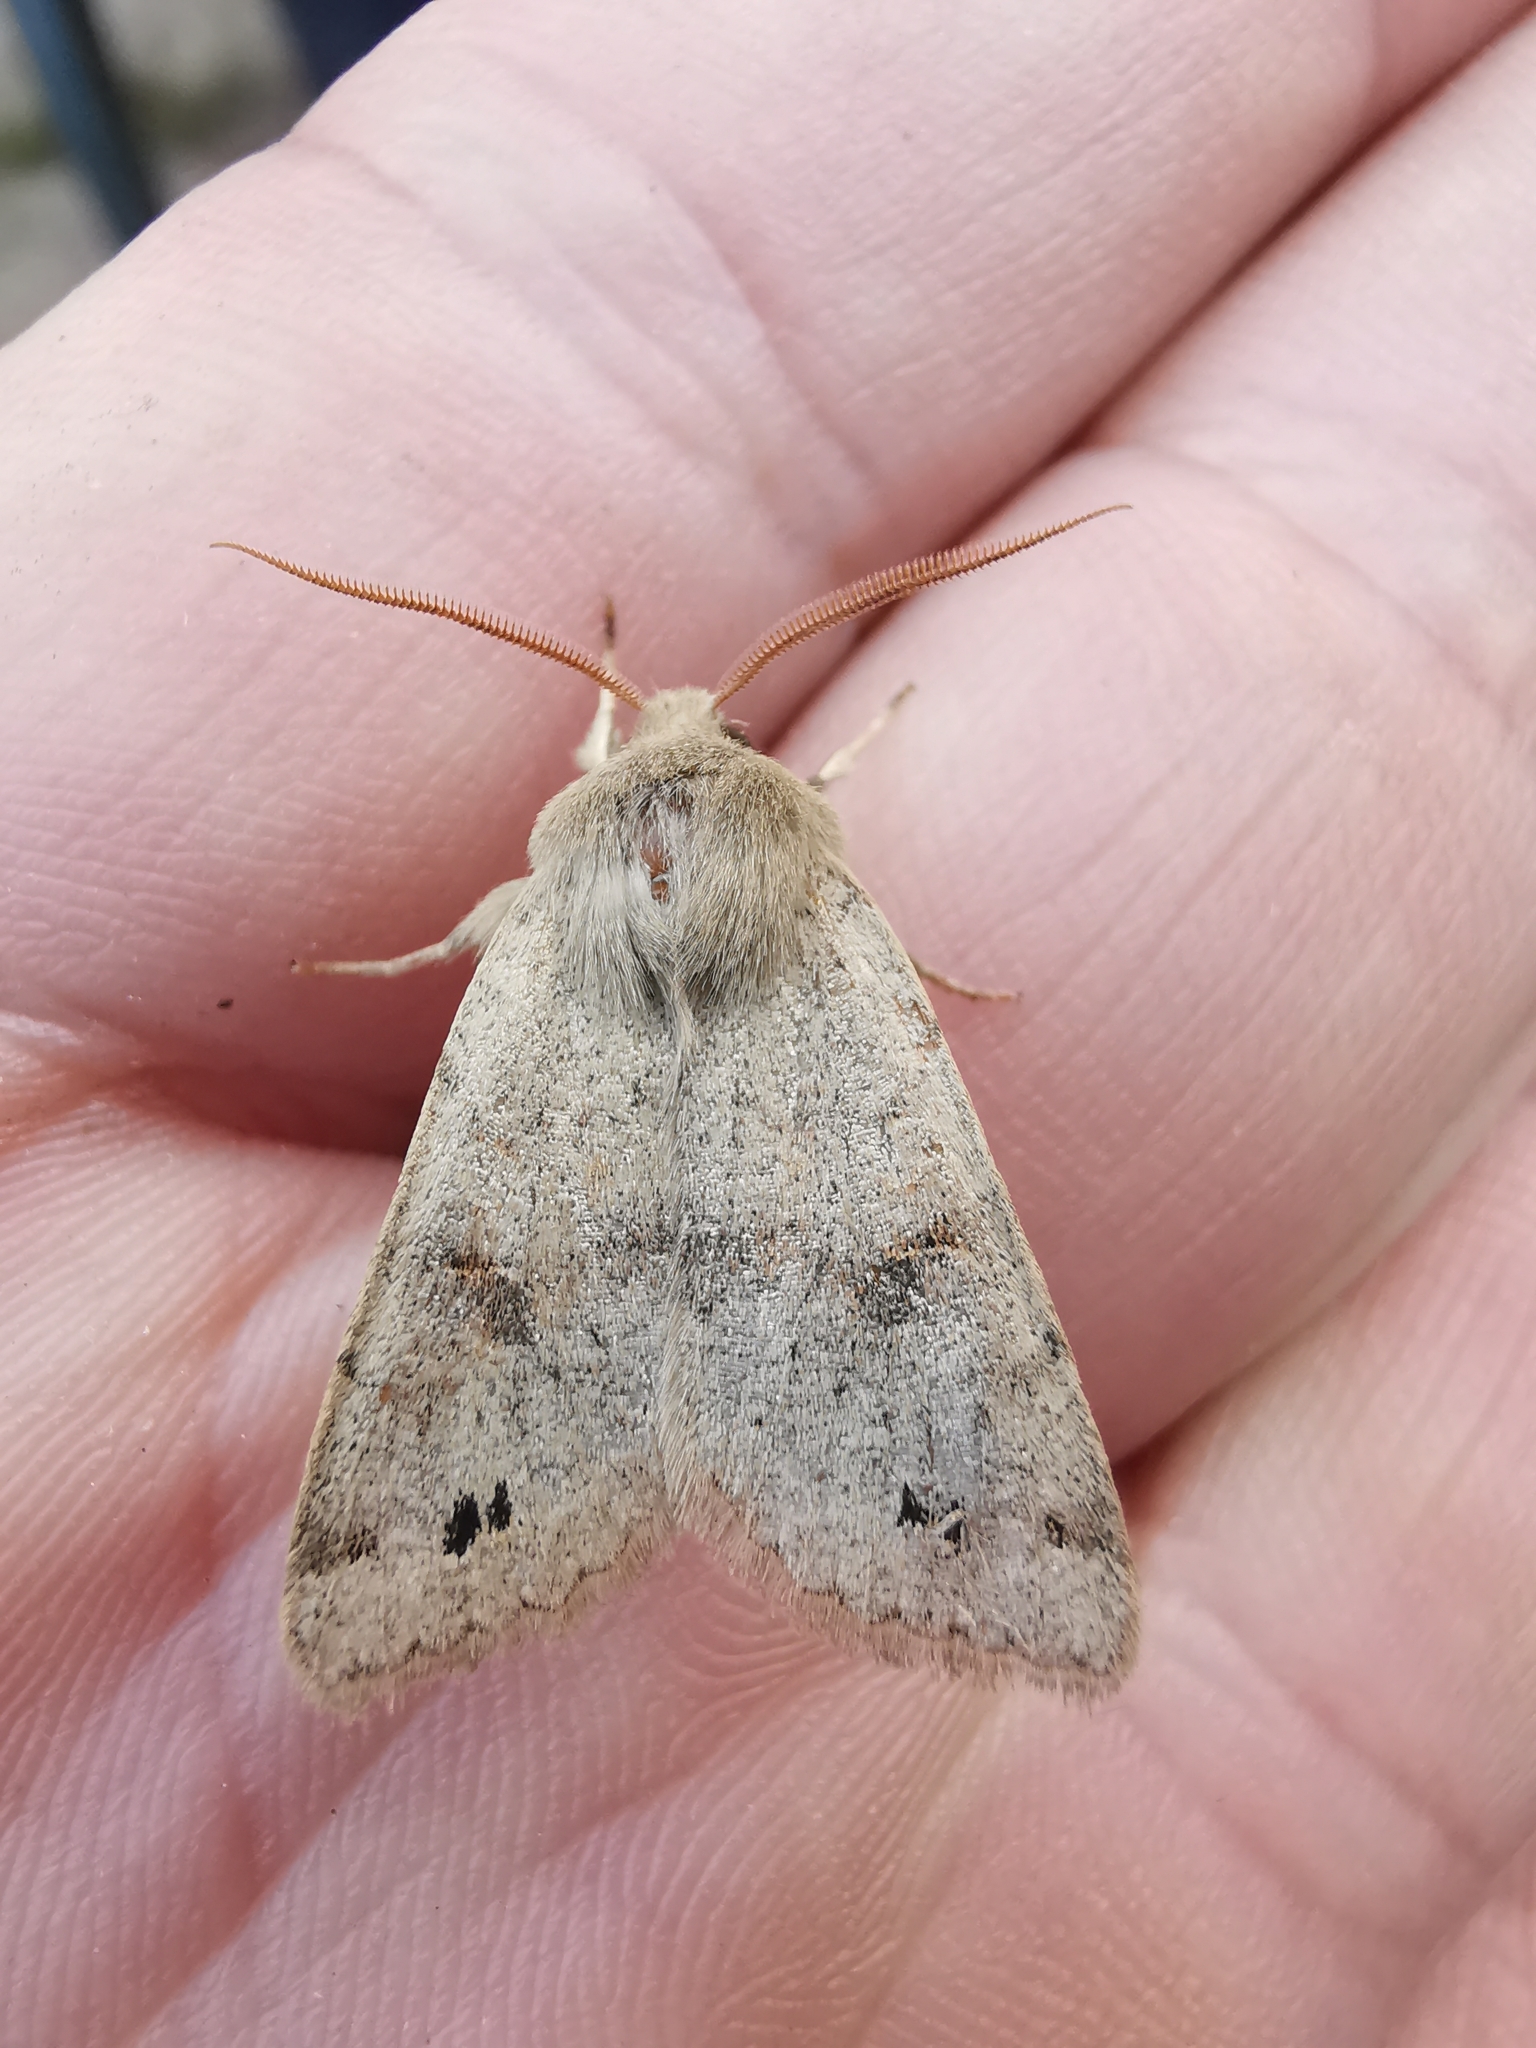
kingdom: Animalia
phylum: Arthropoda
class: Insecta
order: Lepidoptera
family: Noctuidae
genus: Anorthoa
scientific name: Anorthoa munda
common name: Twin-spotted quaker
